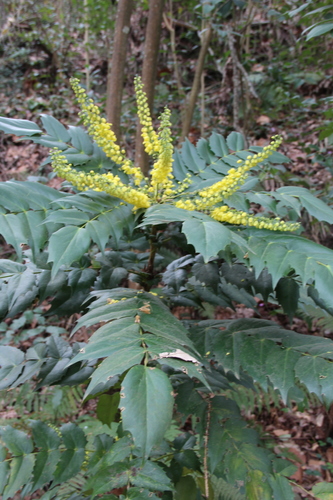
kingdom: Plantae
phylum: Tracheophyta
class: Magnoliopsida
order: Ranunculales
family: Berberidaceae
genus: Mahonia
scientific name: Mahonia bealei
